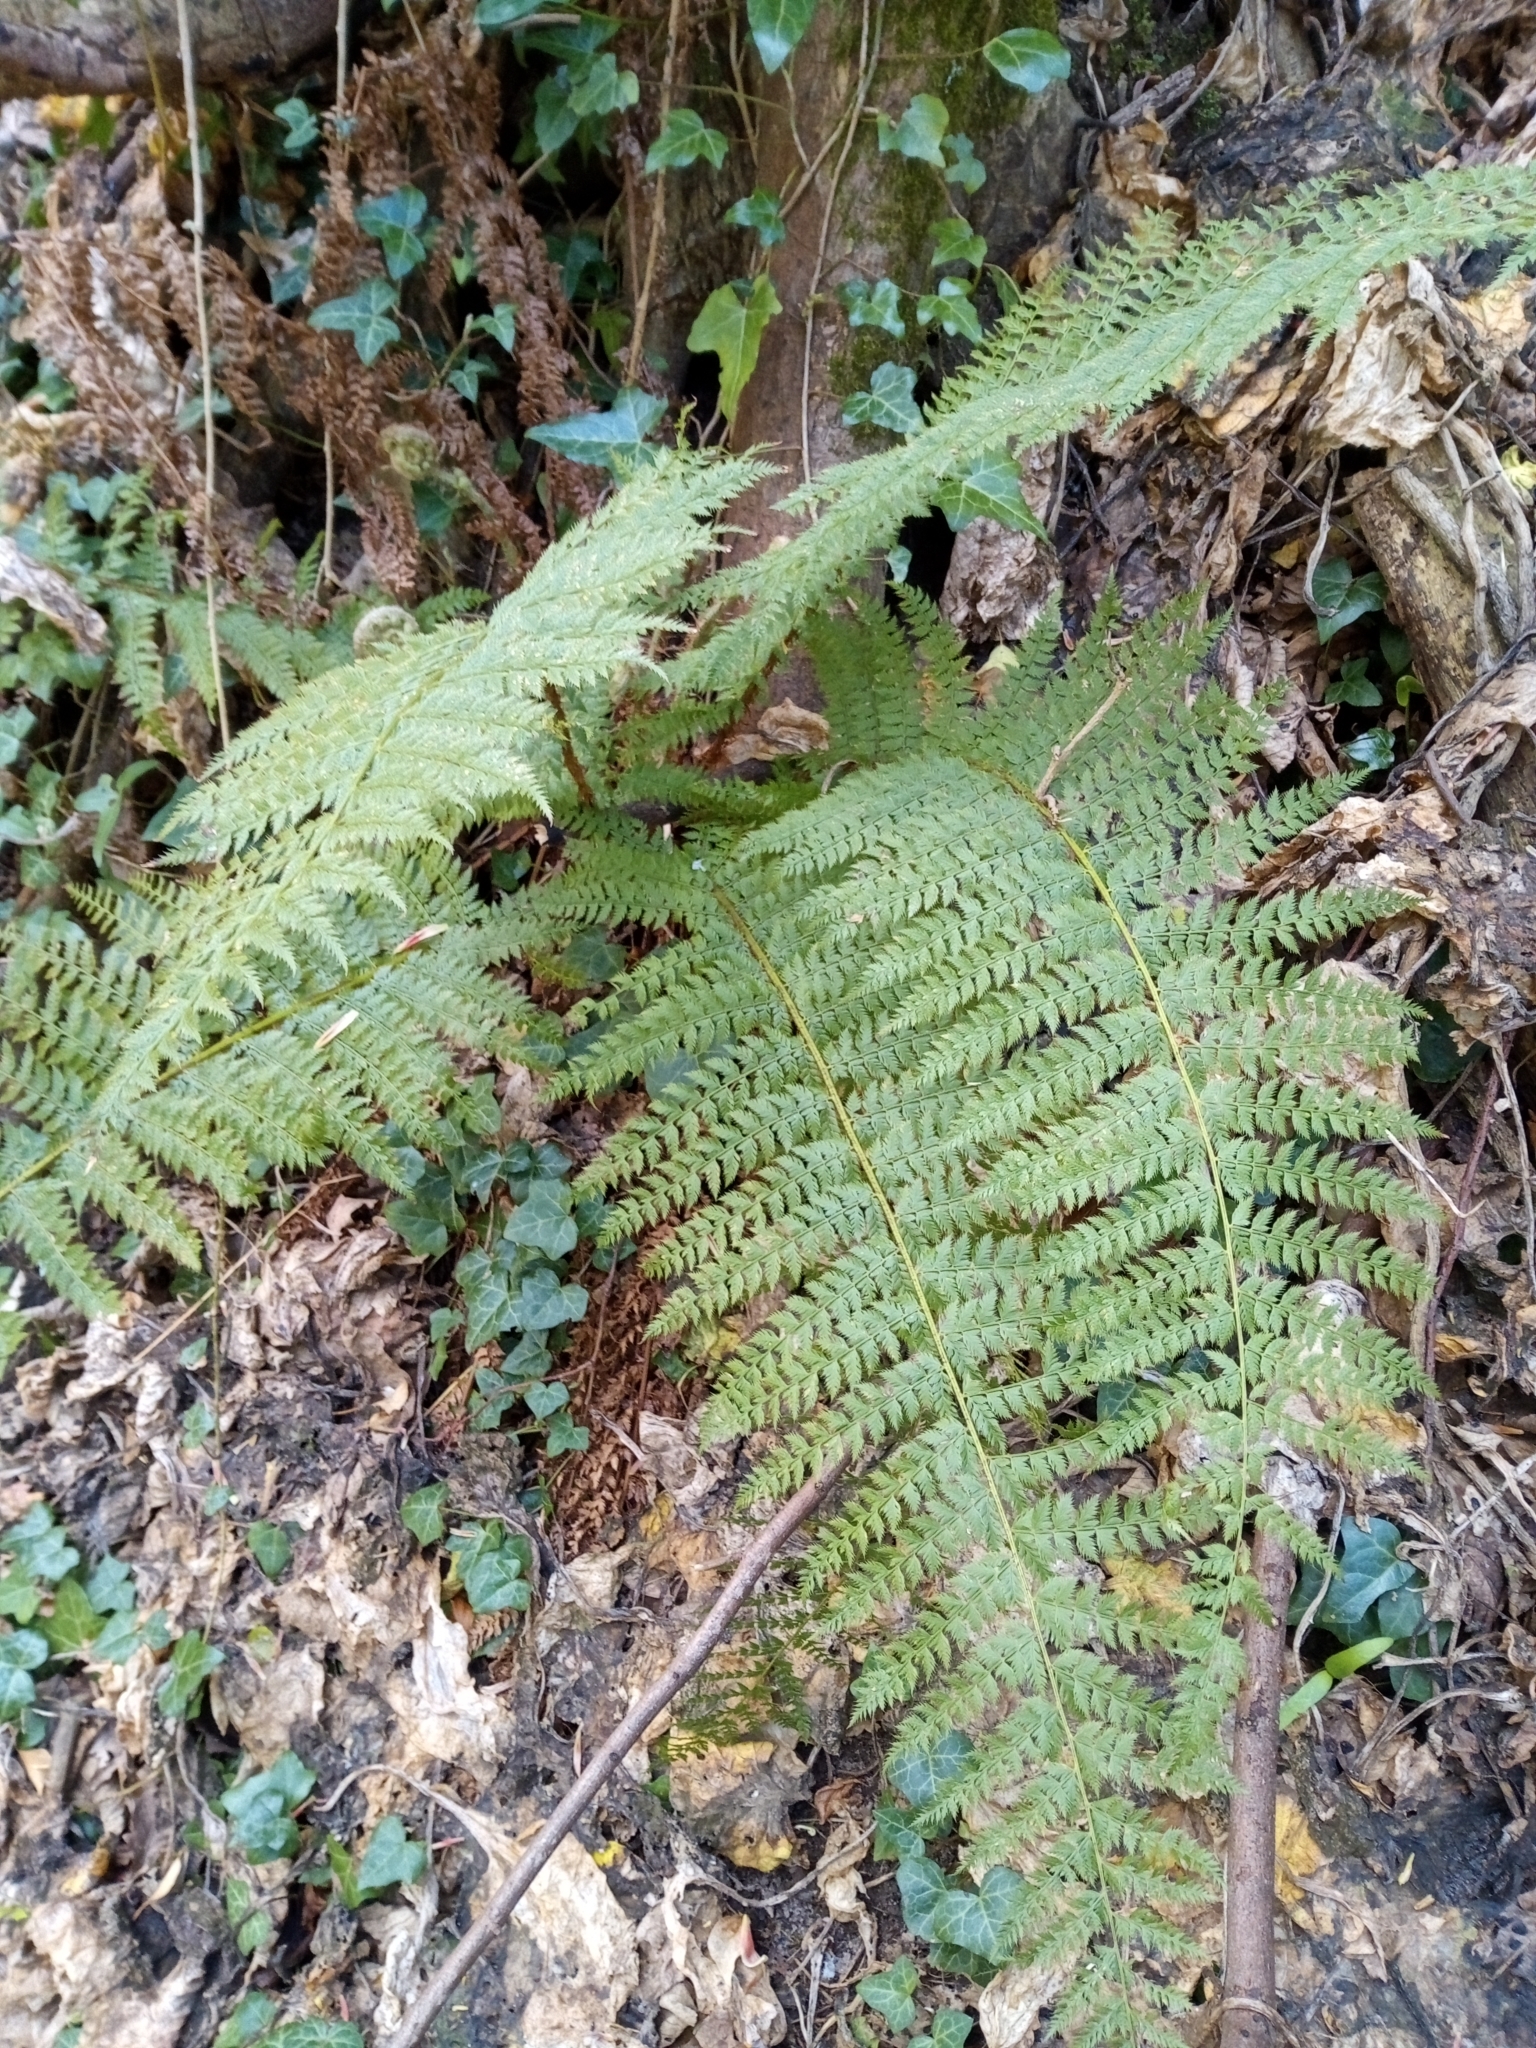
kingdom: Plantae
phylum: Tracheophyta
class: Polypodiopsida
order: Polypodiales
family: Dryopteridaceae
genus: Polystichum
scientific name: Polystichum setiferum
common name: Soft shield-fern
